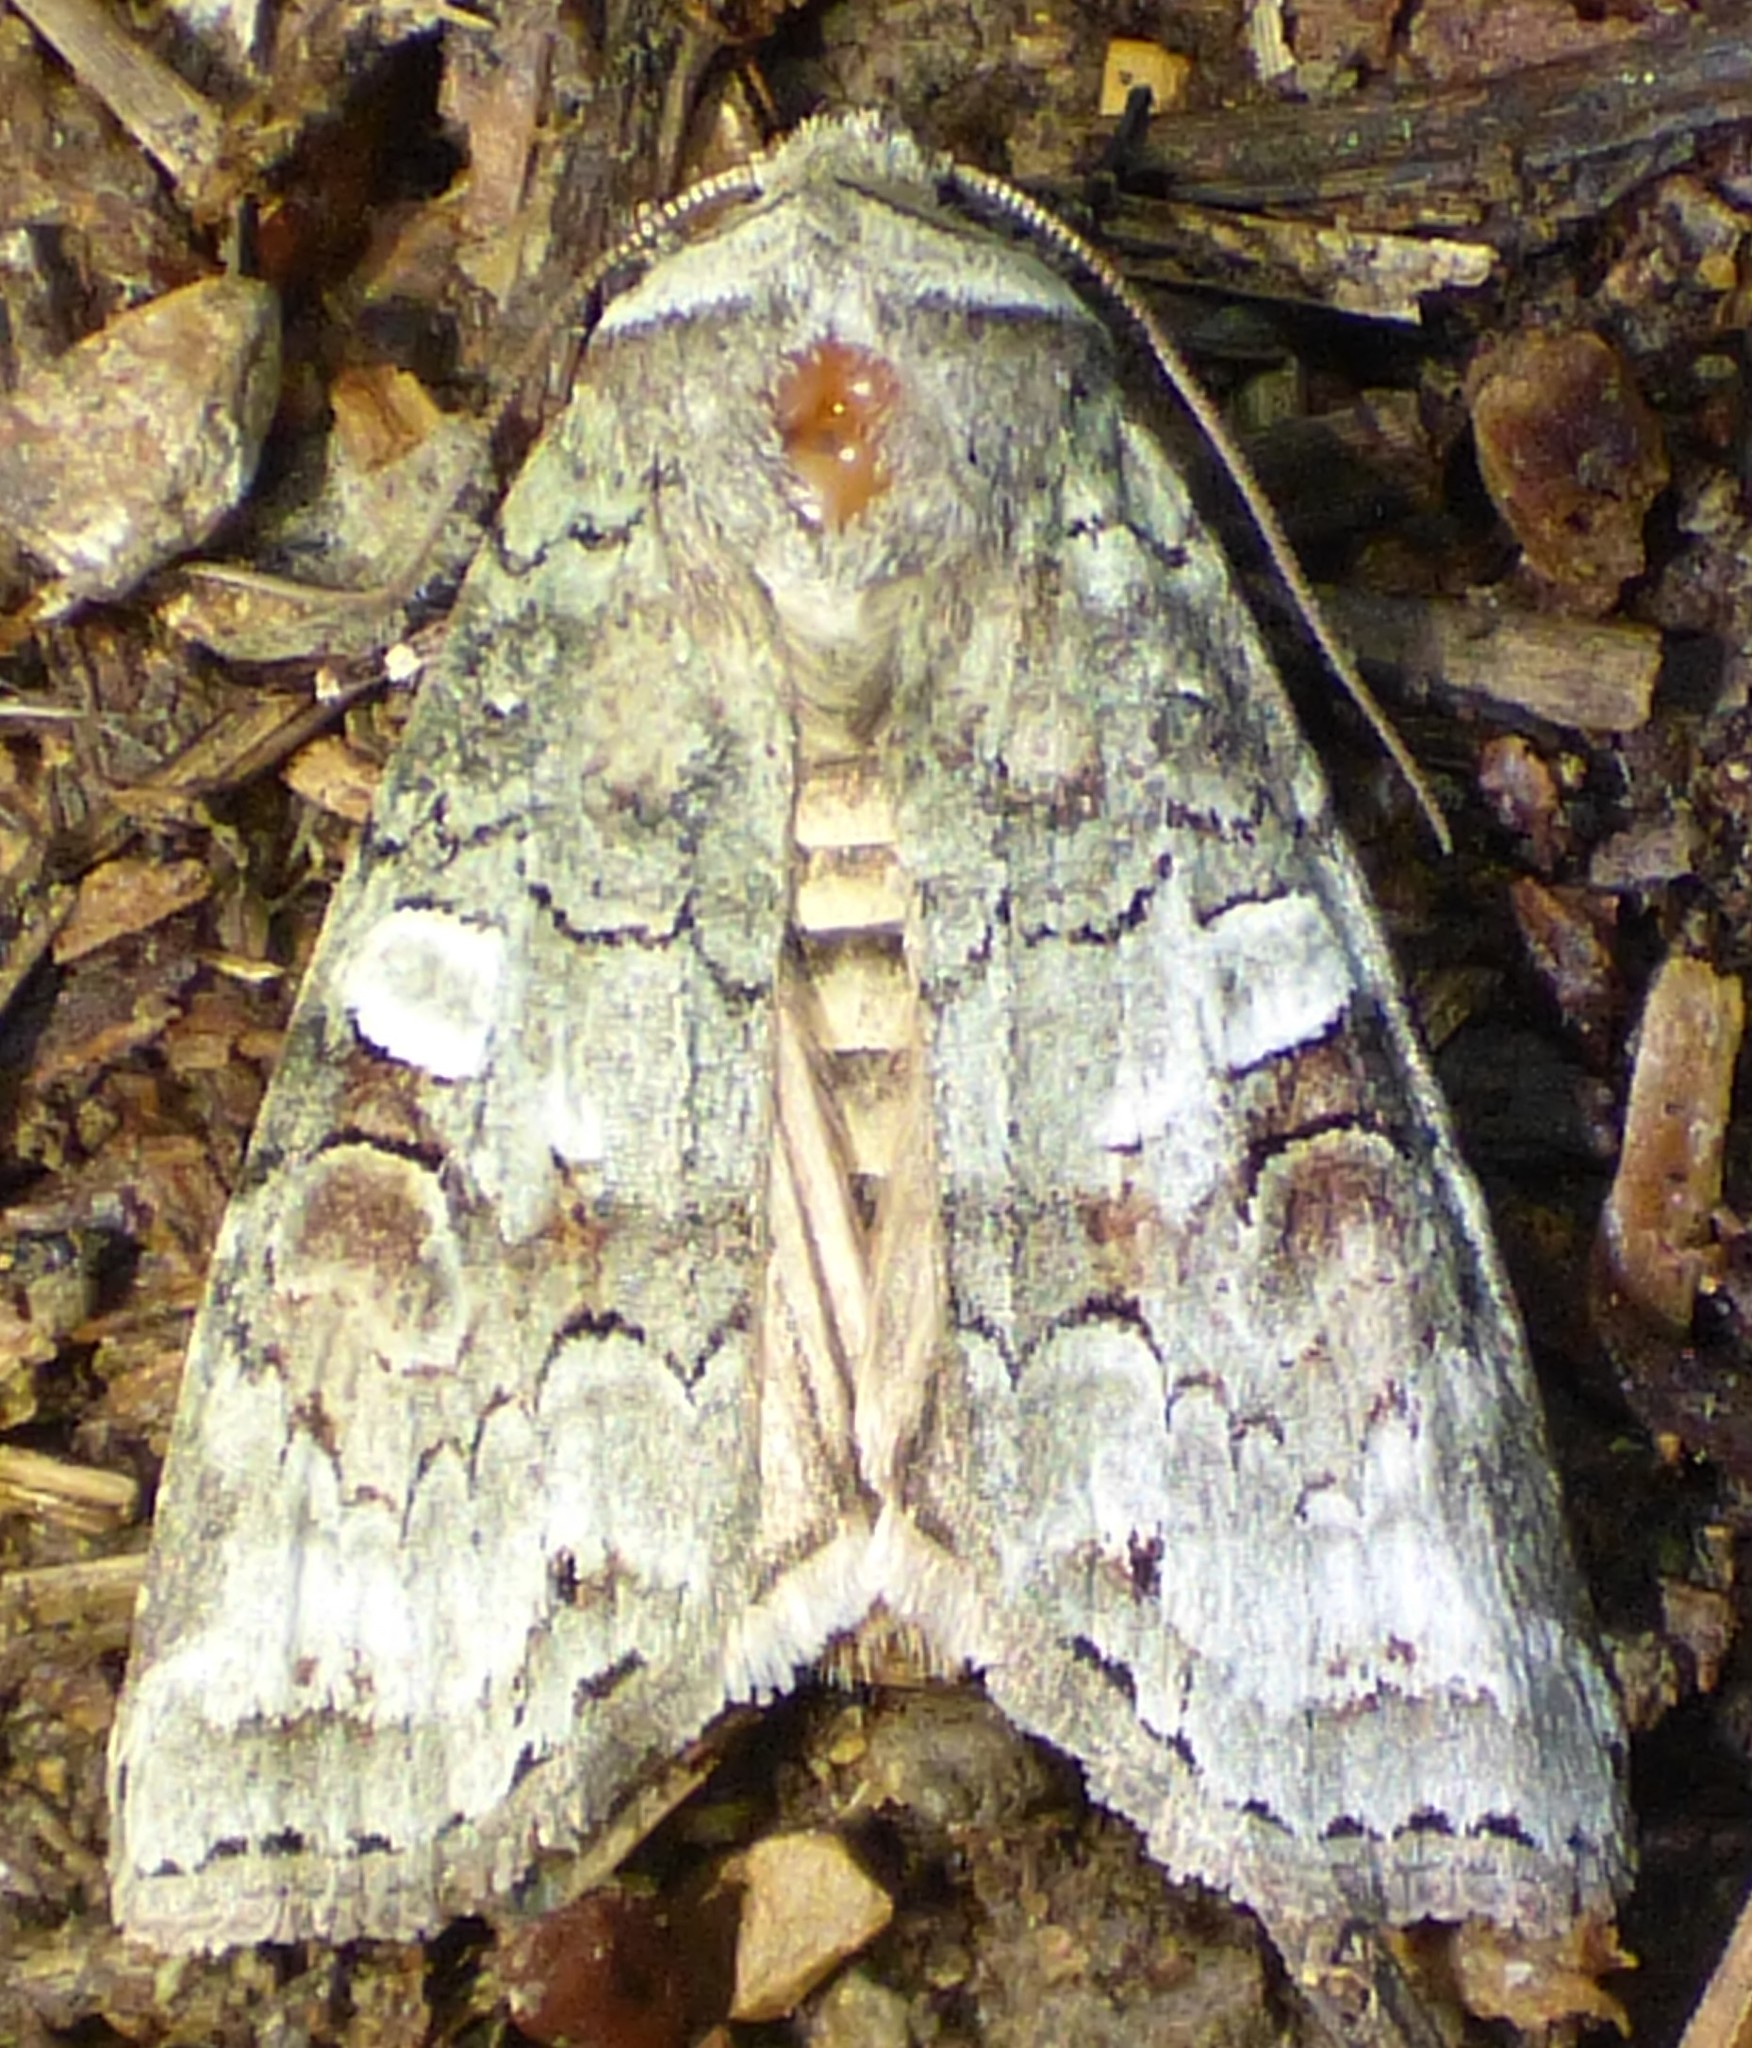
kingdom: Animalia
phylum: Arthropoda
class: Insecta
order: Lepidoptera
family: Noctuidae
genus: Egira
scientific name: Egira alternans
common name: Alternate woodling
